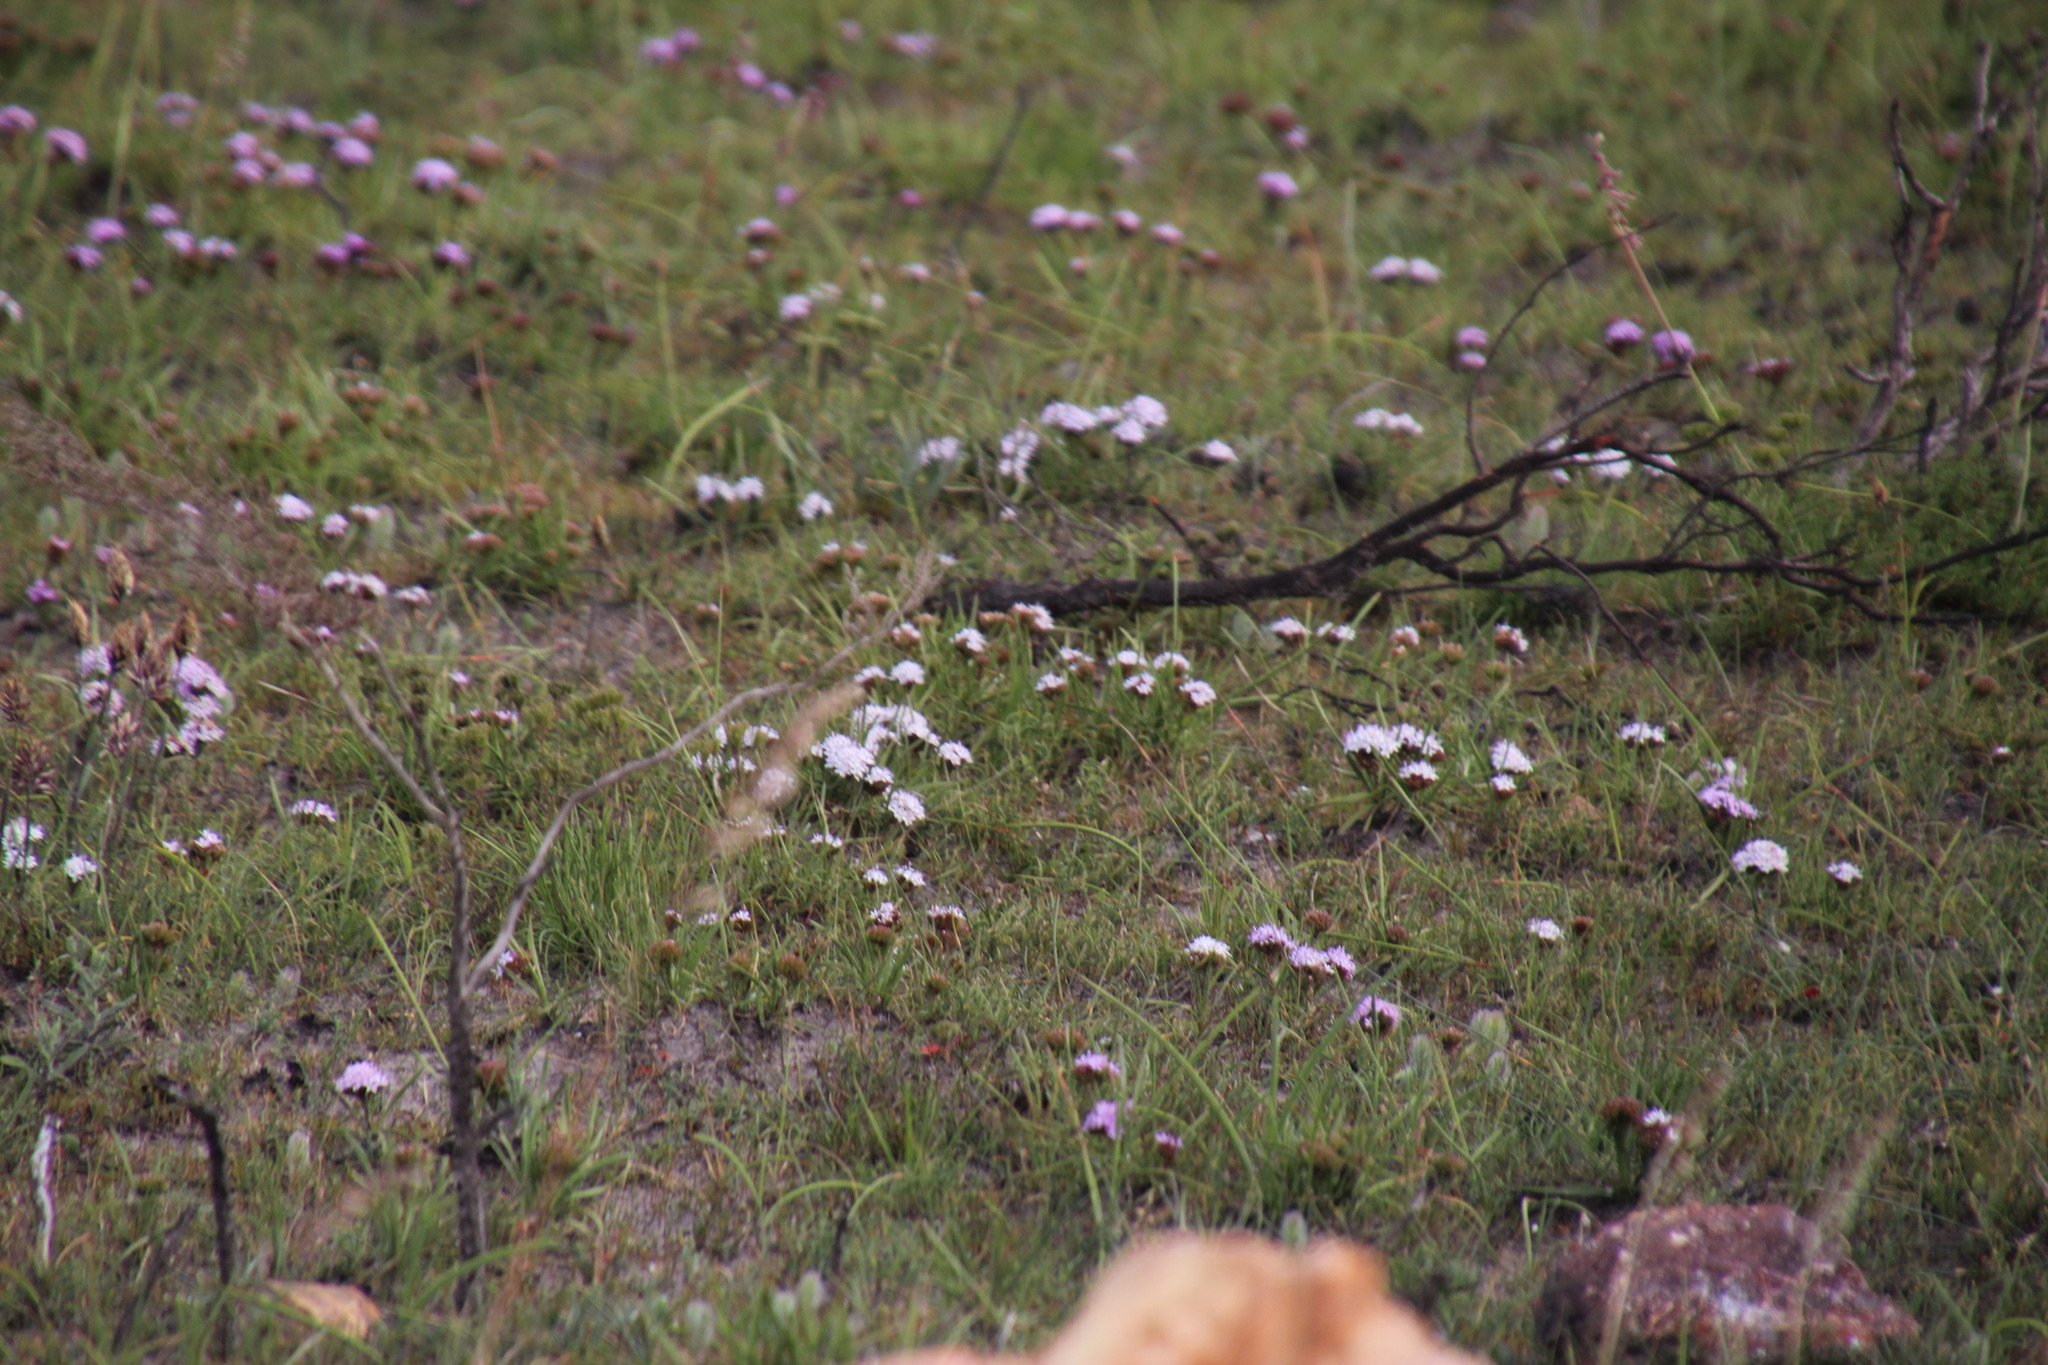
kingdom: Plantae
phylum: Tracheophyta
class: Magnoliopsida
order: Asterales
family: Asteraceae
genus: Corymbium
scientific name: Corymbium glabrum
